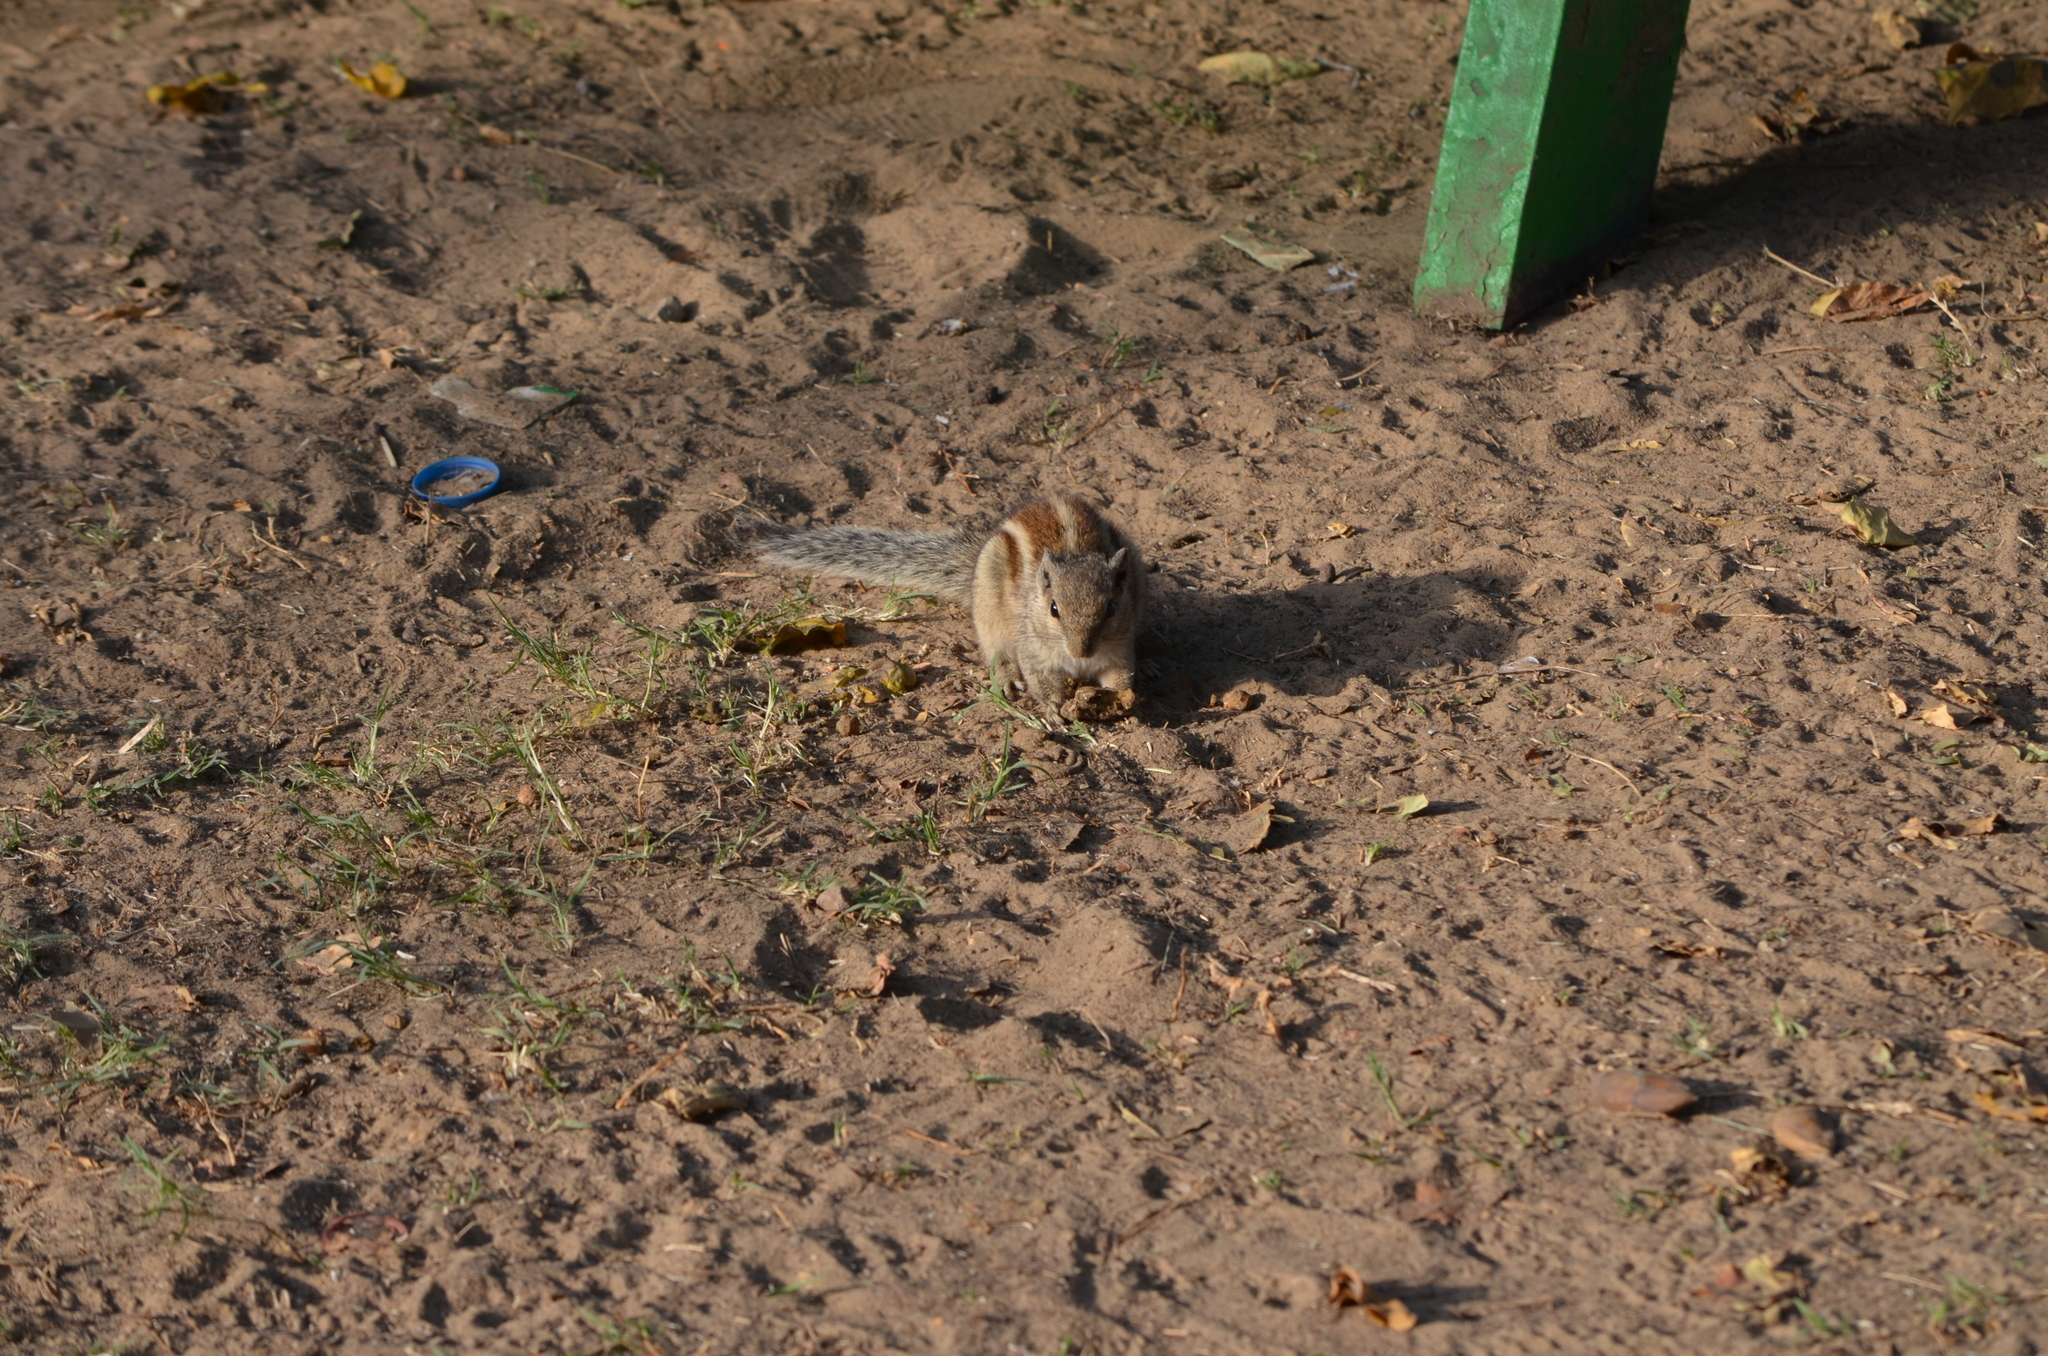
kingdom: Animalia
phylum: Chordata
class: Mammalia
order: Rodentia
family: Sciuridae
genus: Funambulus
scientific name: Funambulus pennantii
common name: Northern palm squirrel
